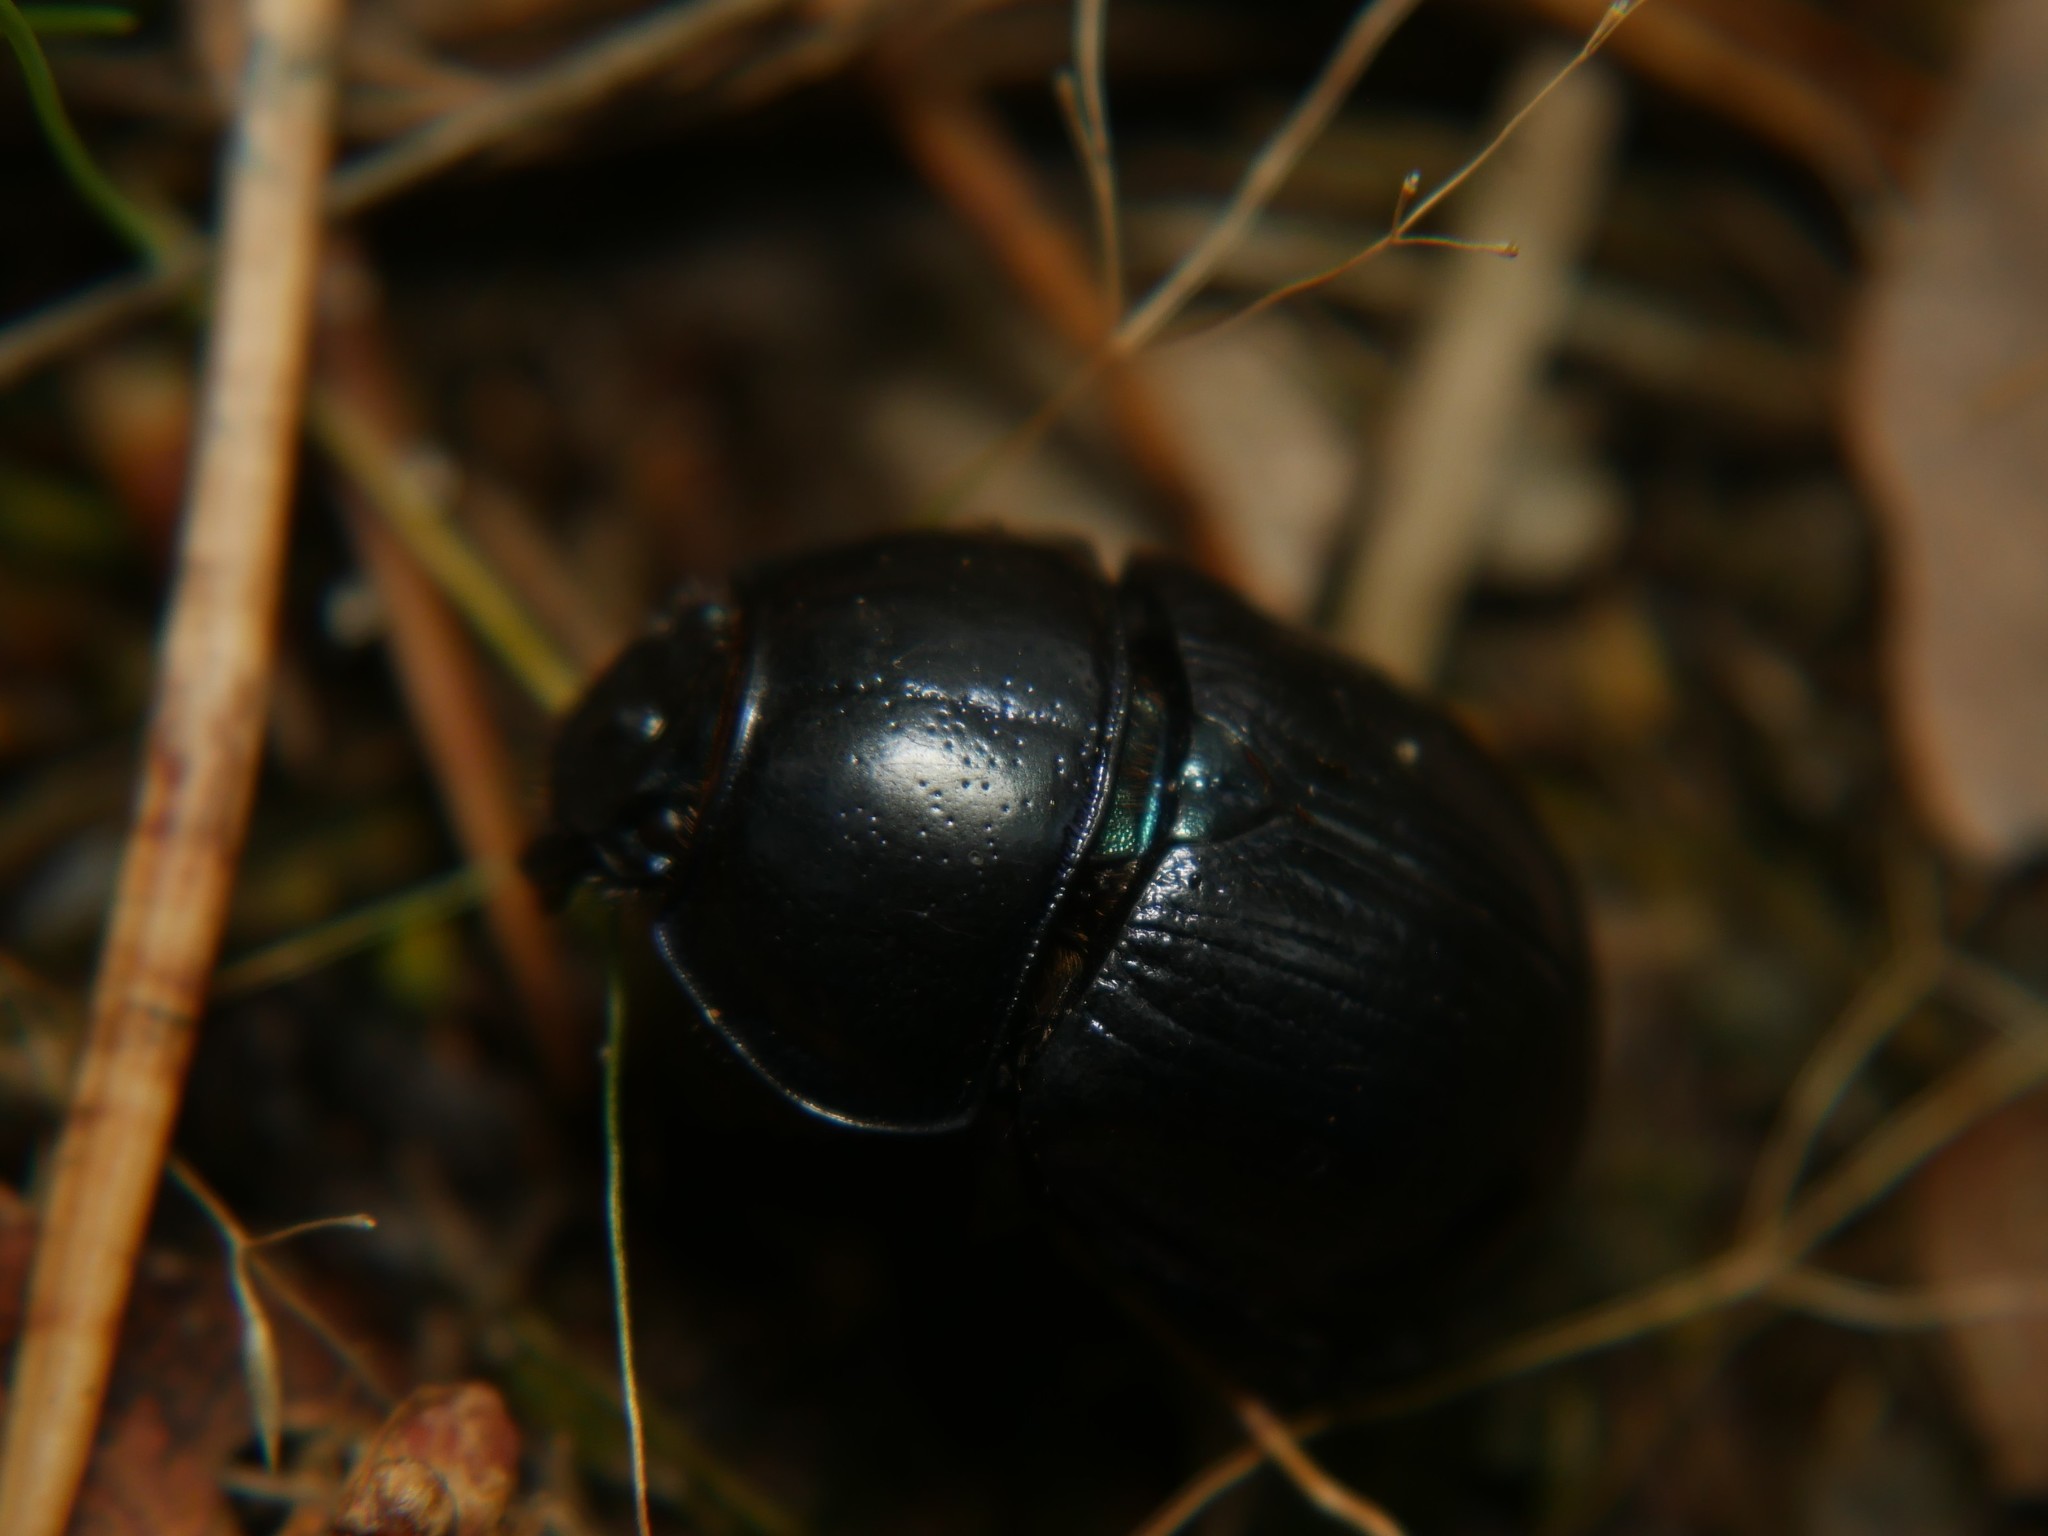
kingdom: Animalia
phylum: Arthropoda
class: Insecta
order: Coleoptera
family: Geotrupidae
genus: Anoplotrupes
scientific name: Anoplotrupes stercorosus
